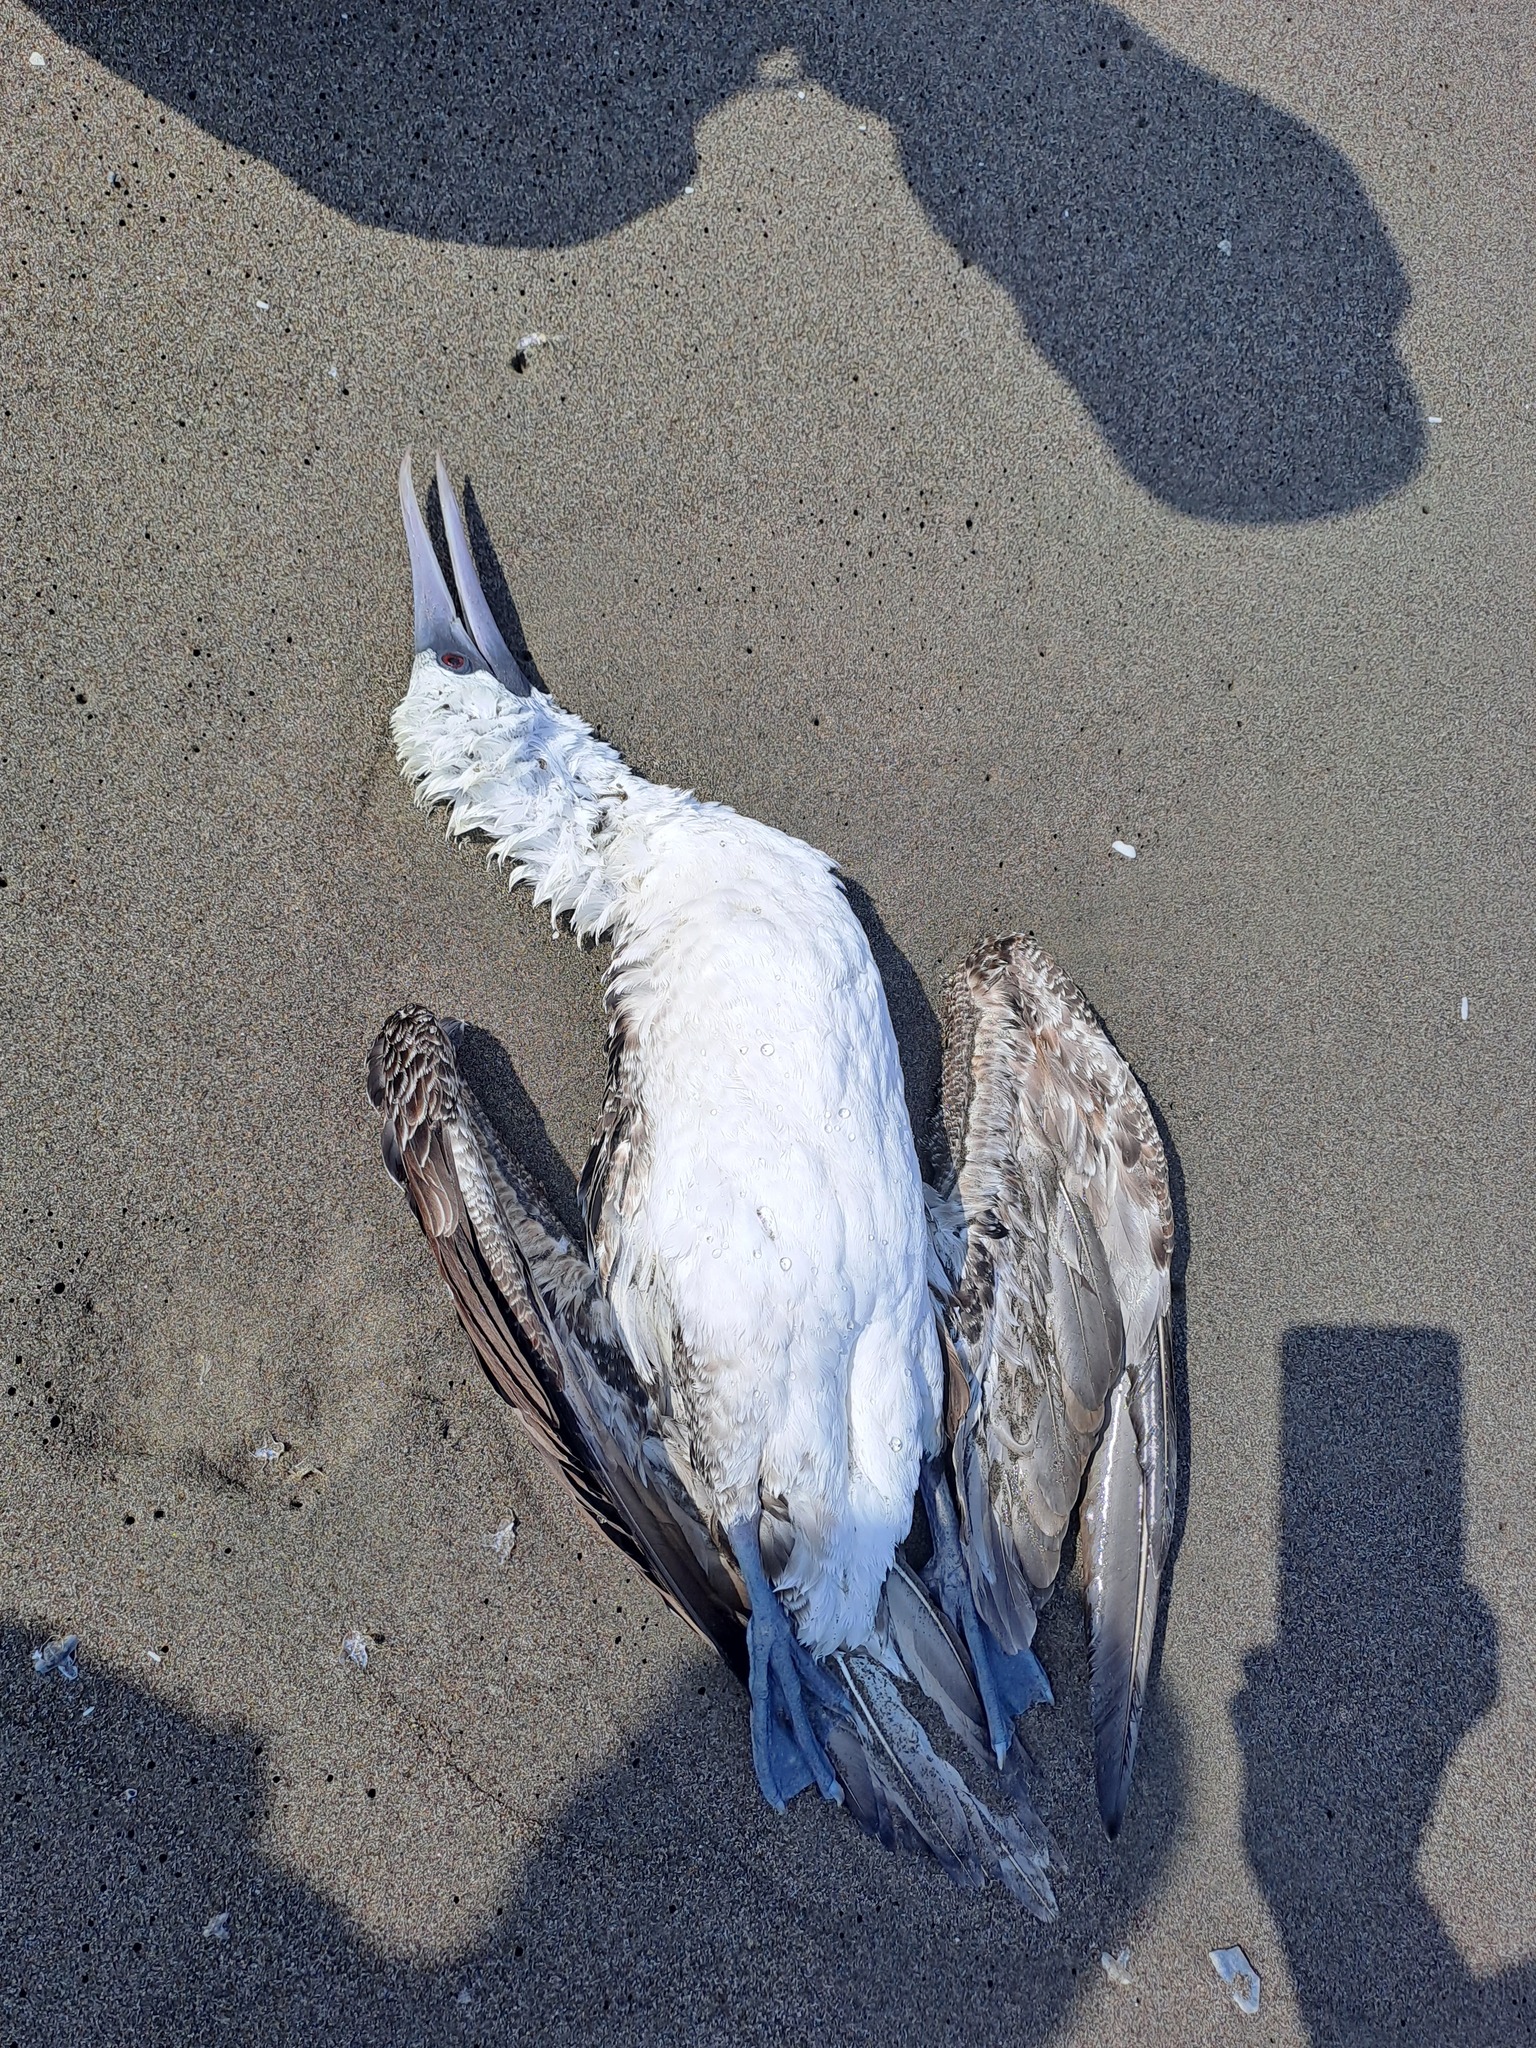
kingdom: Animalia
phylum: Chordata
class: Aves
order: Suliformes
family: Sulidae
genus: Sula
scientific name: Sula variegata
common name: Peruvian booby
